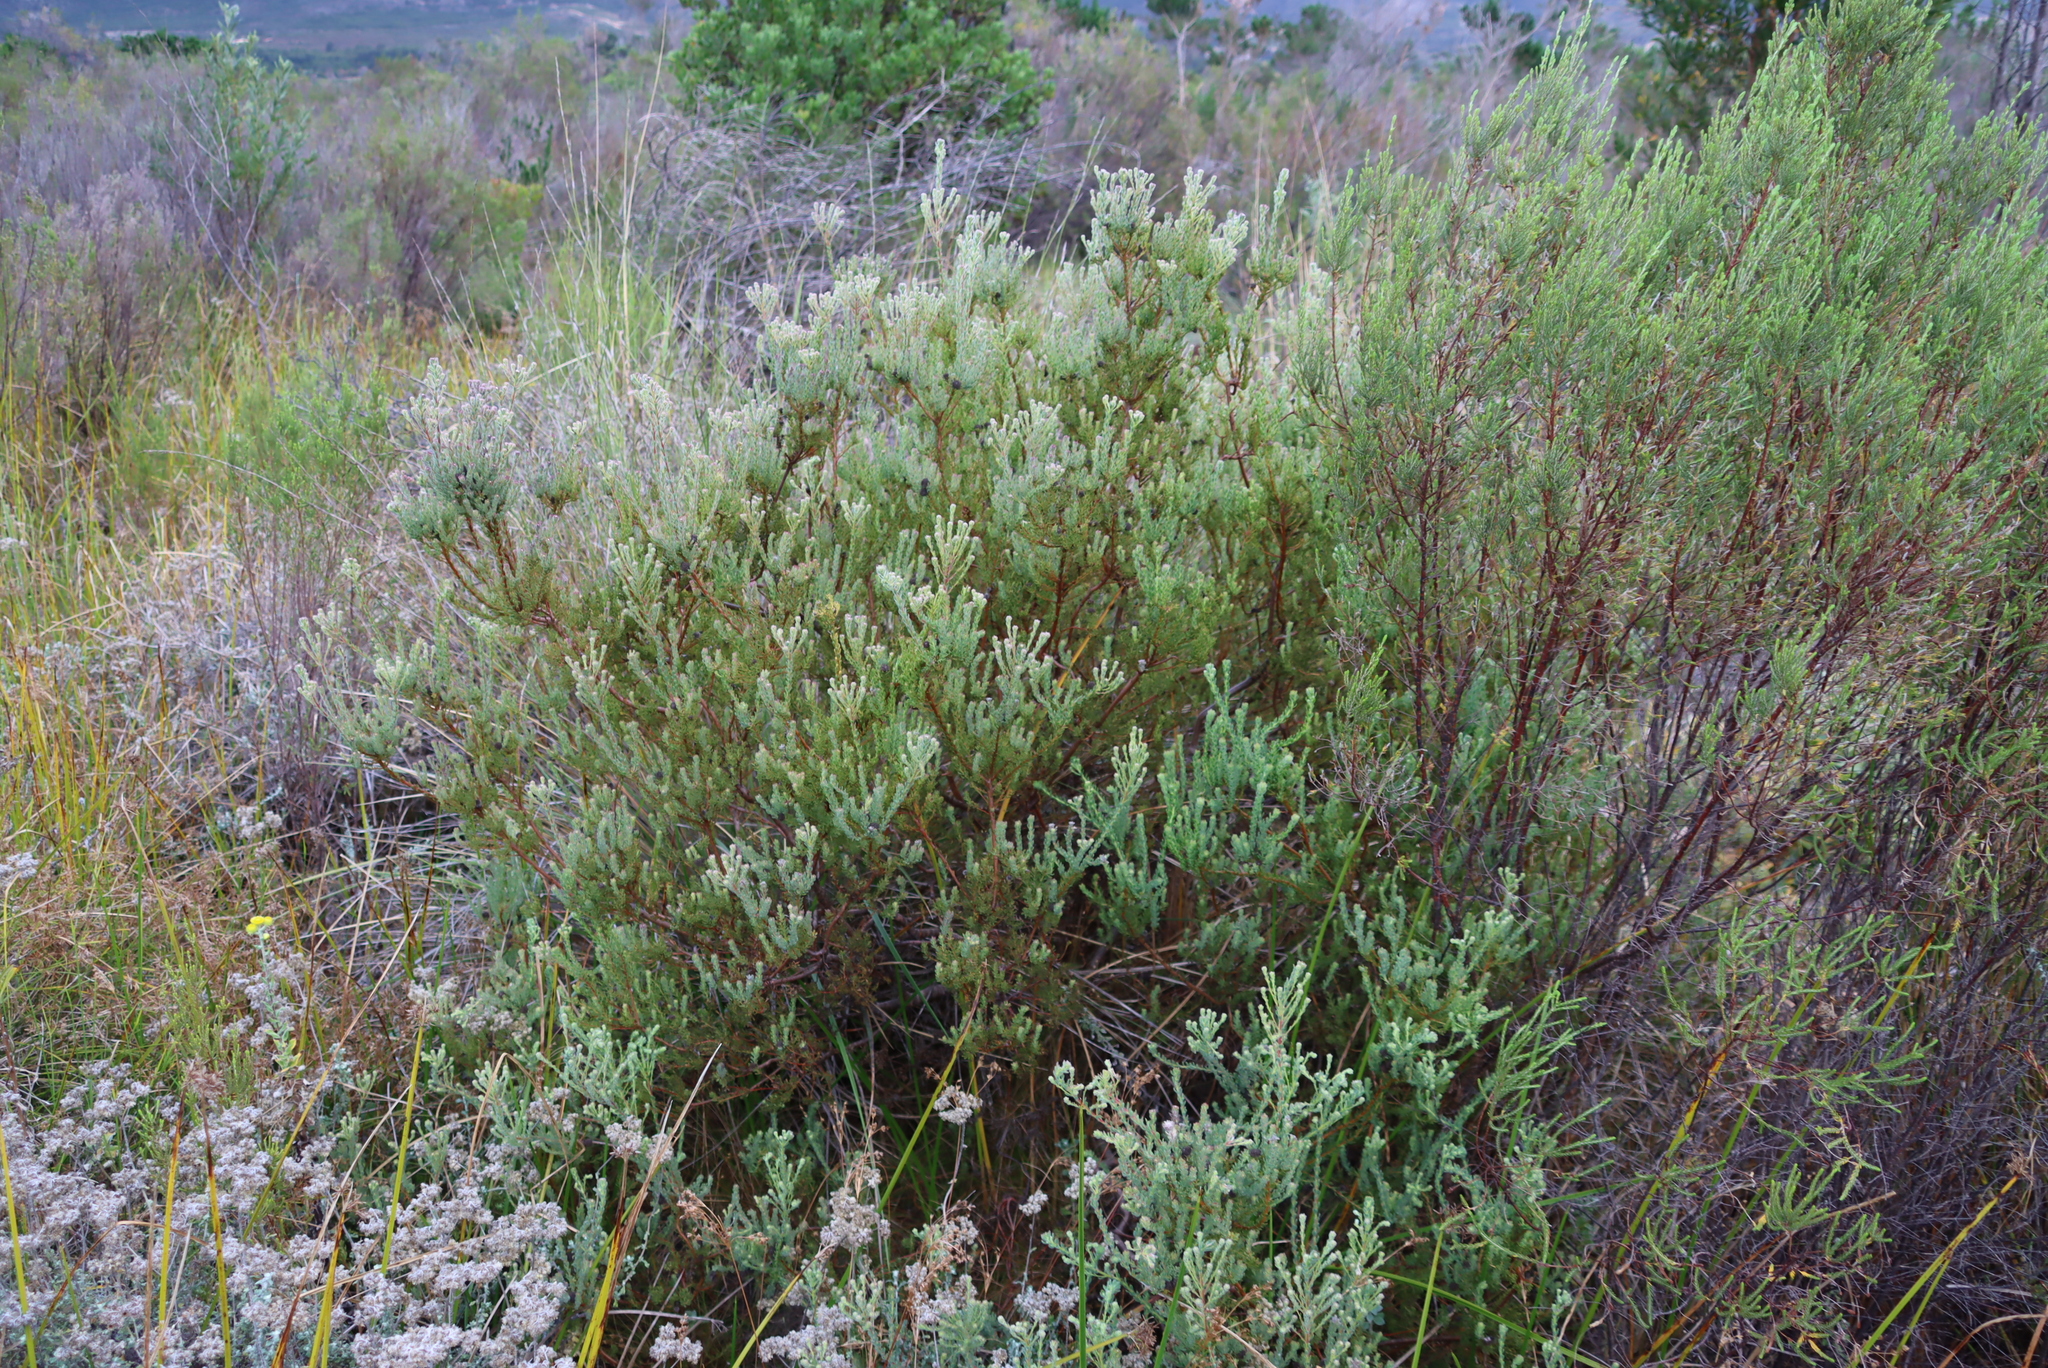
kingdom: Plantae
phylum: Tracheophyta
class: Magnoliopsida
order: Proteales
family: Proteaceae
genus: Leucadendron
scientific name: Leucadendron levisanus
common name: Cape flats conebush
